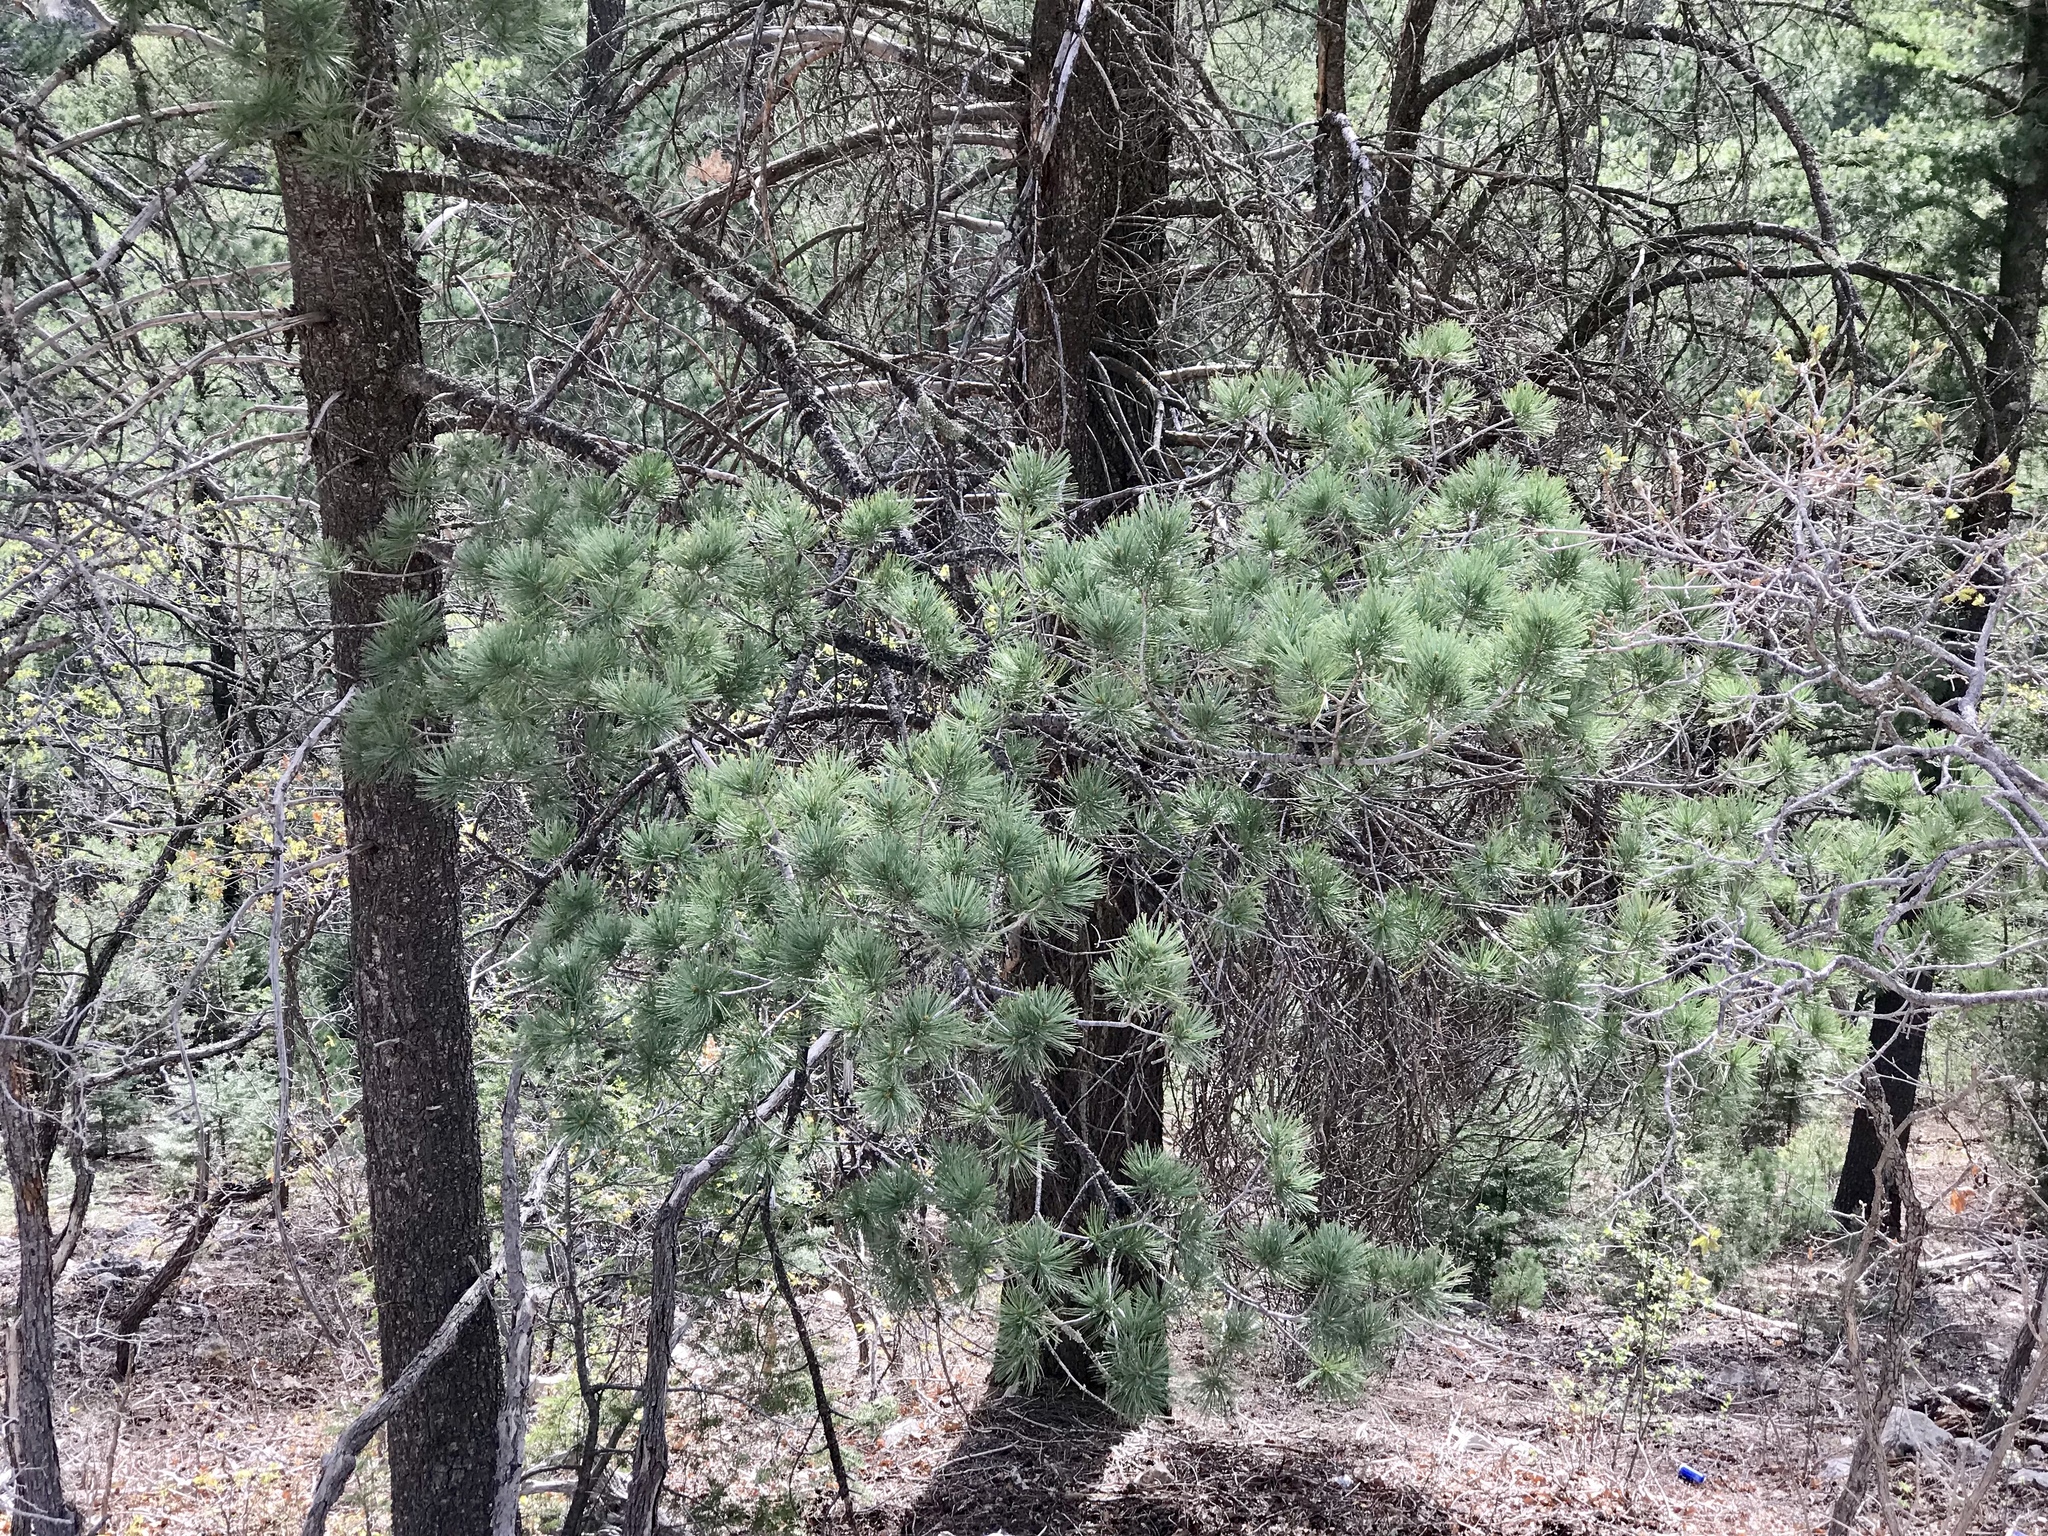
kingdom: Plantae
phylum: Tracheophyta
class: Pinopsida
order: Pinales
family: Pinaceae
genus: Pinus
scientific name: Pinus strobiformis
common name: Southwestern white pine
